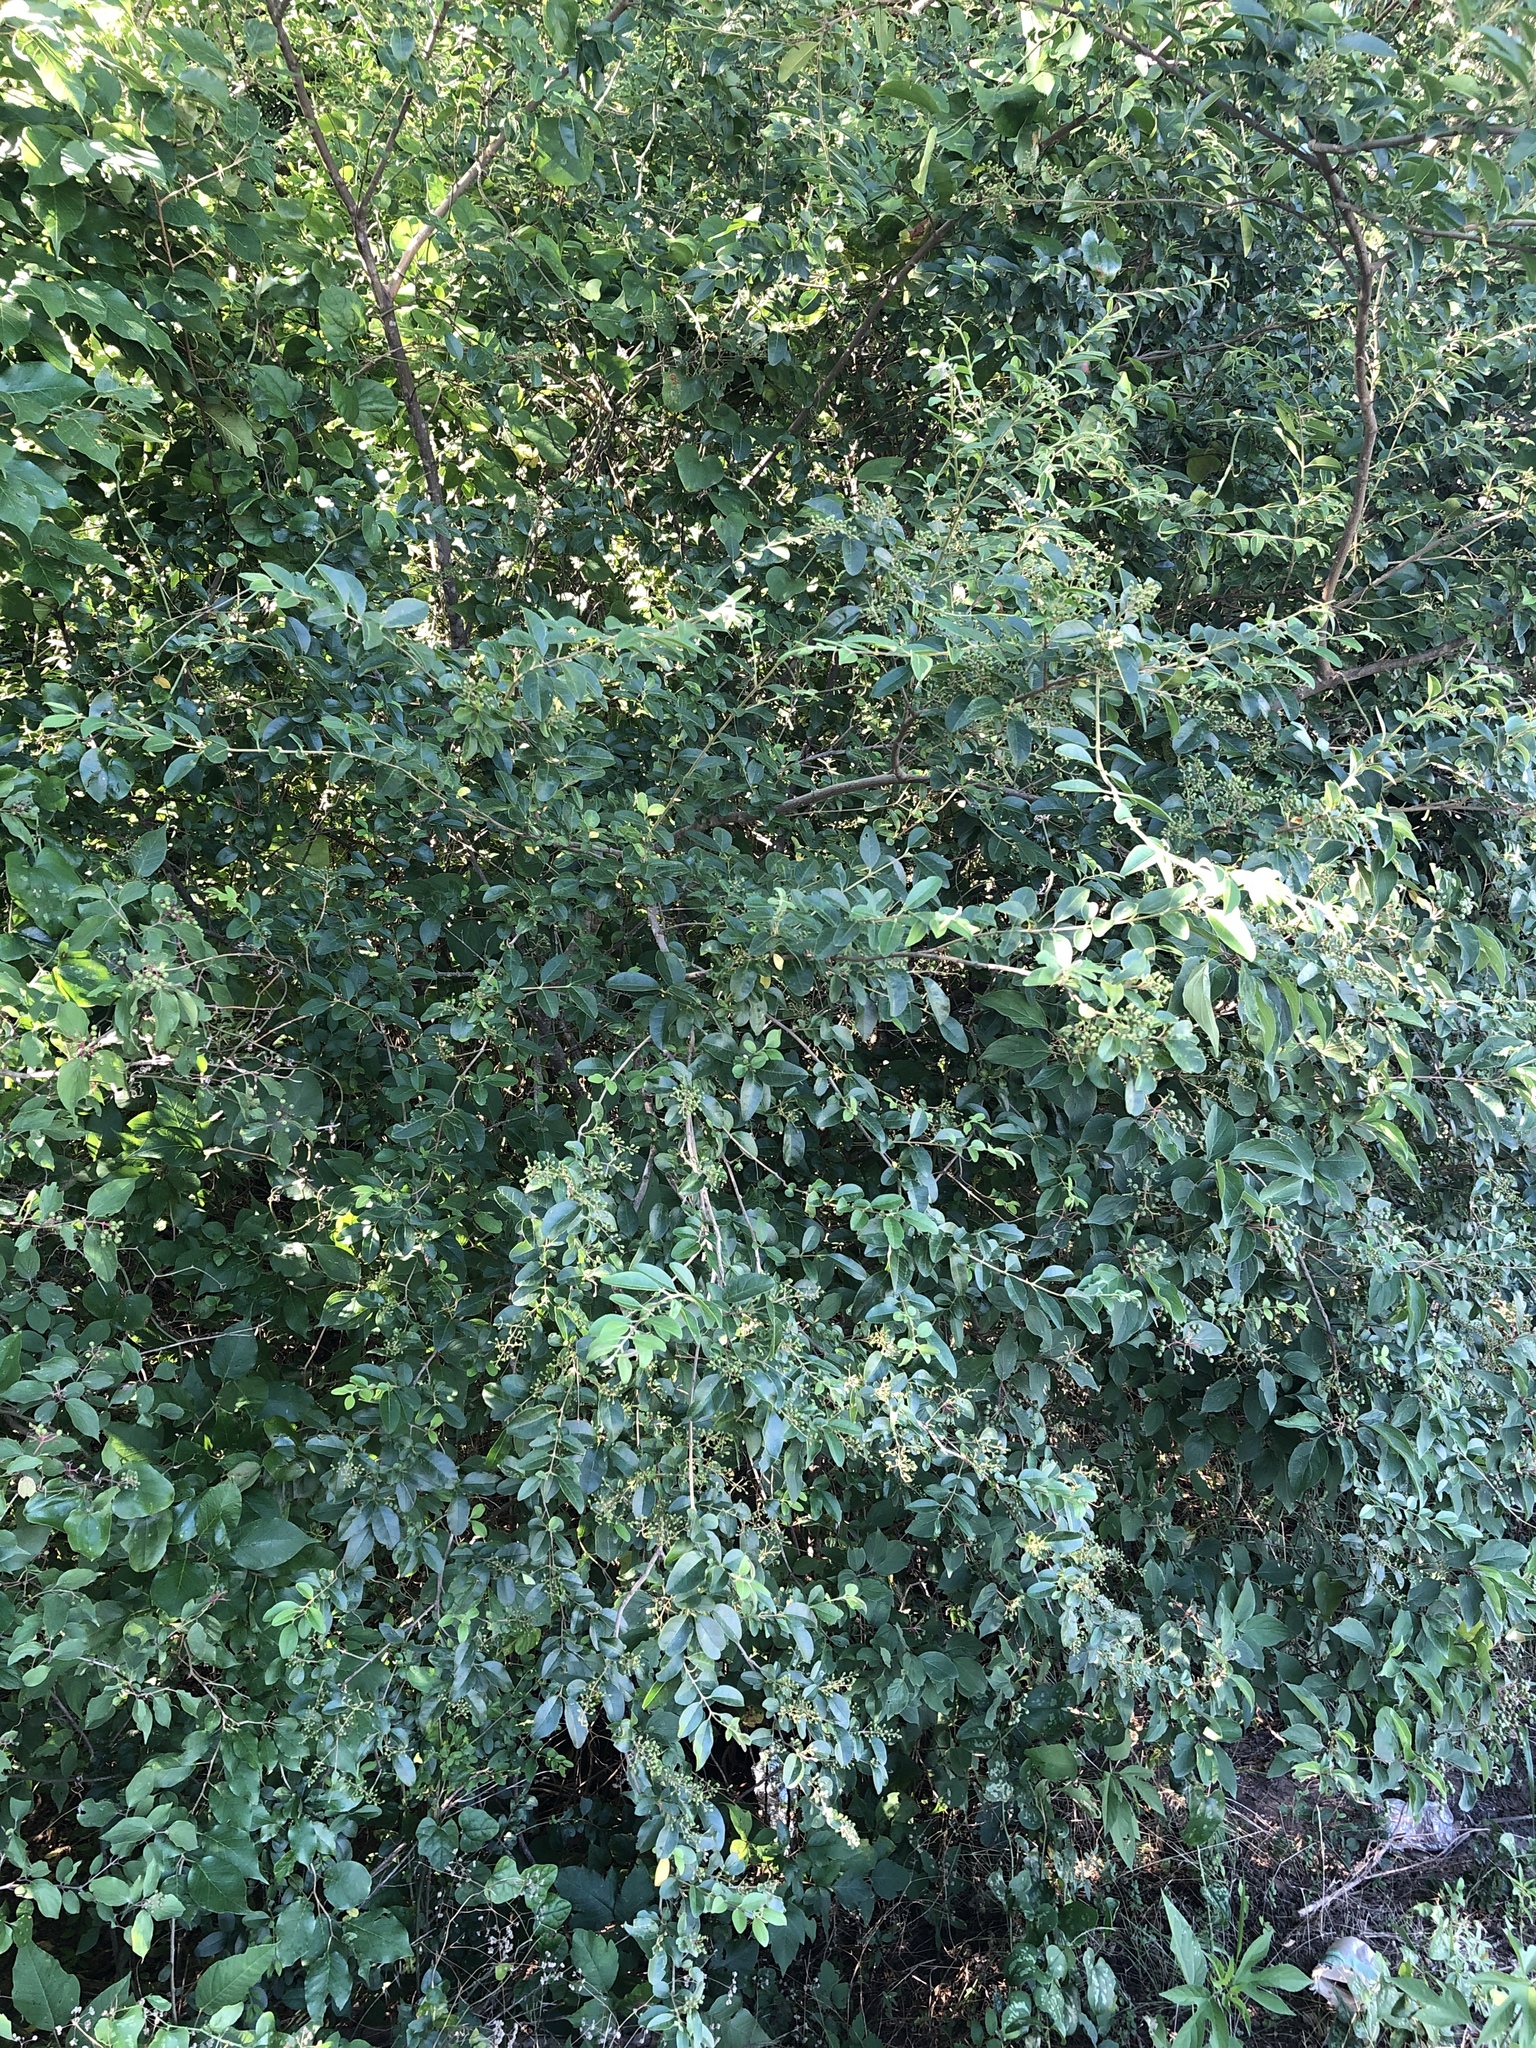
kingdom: Plantae
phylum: Tracheophyta
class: Magnoliopsida
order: Lamiales
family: Oleaceae
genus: Ligustrum
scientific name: Ligustrum sinense
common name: Chinese privet
